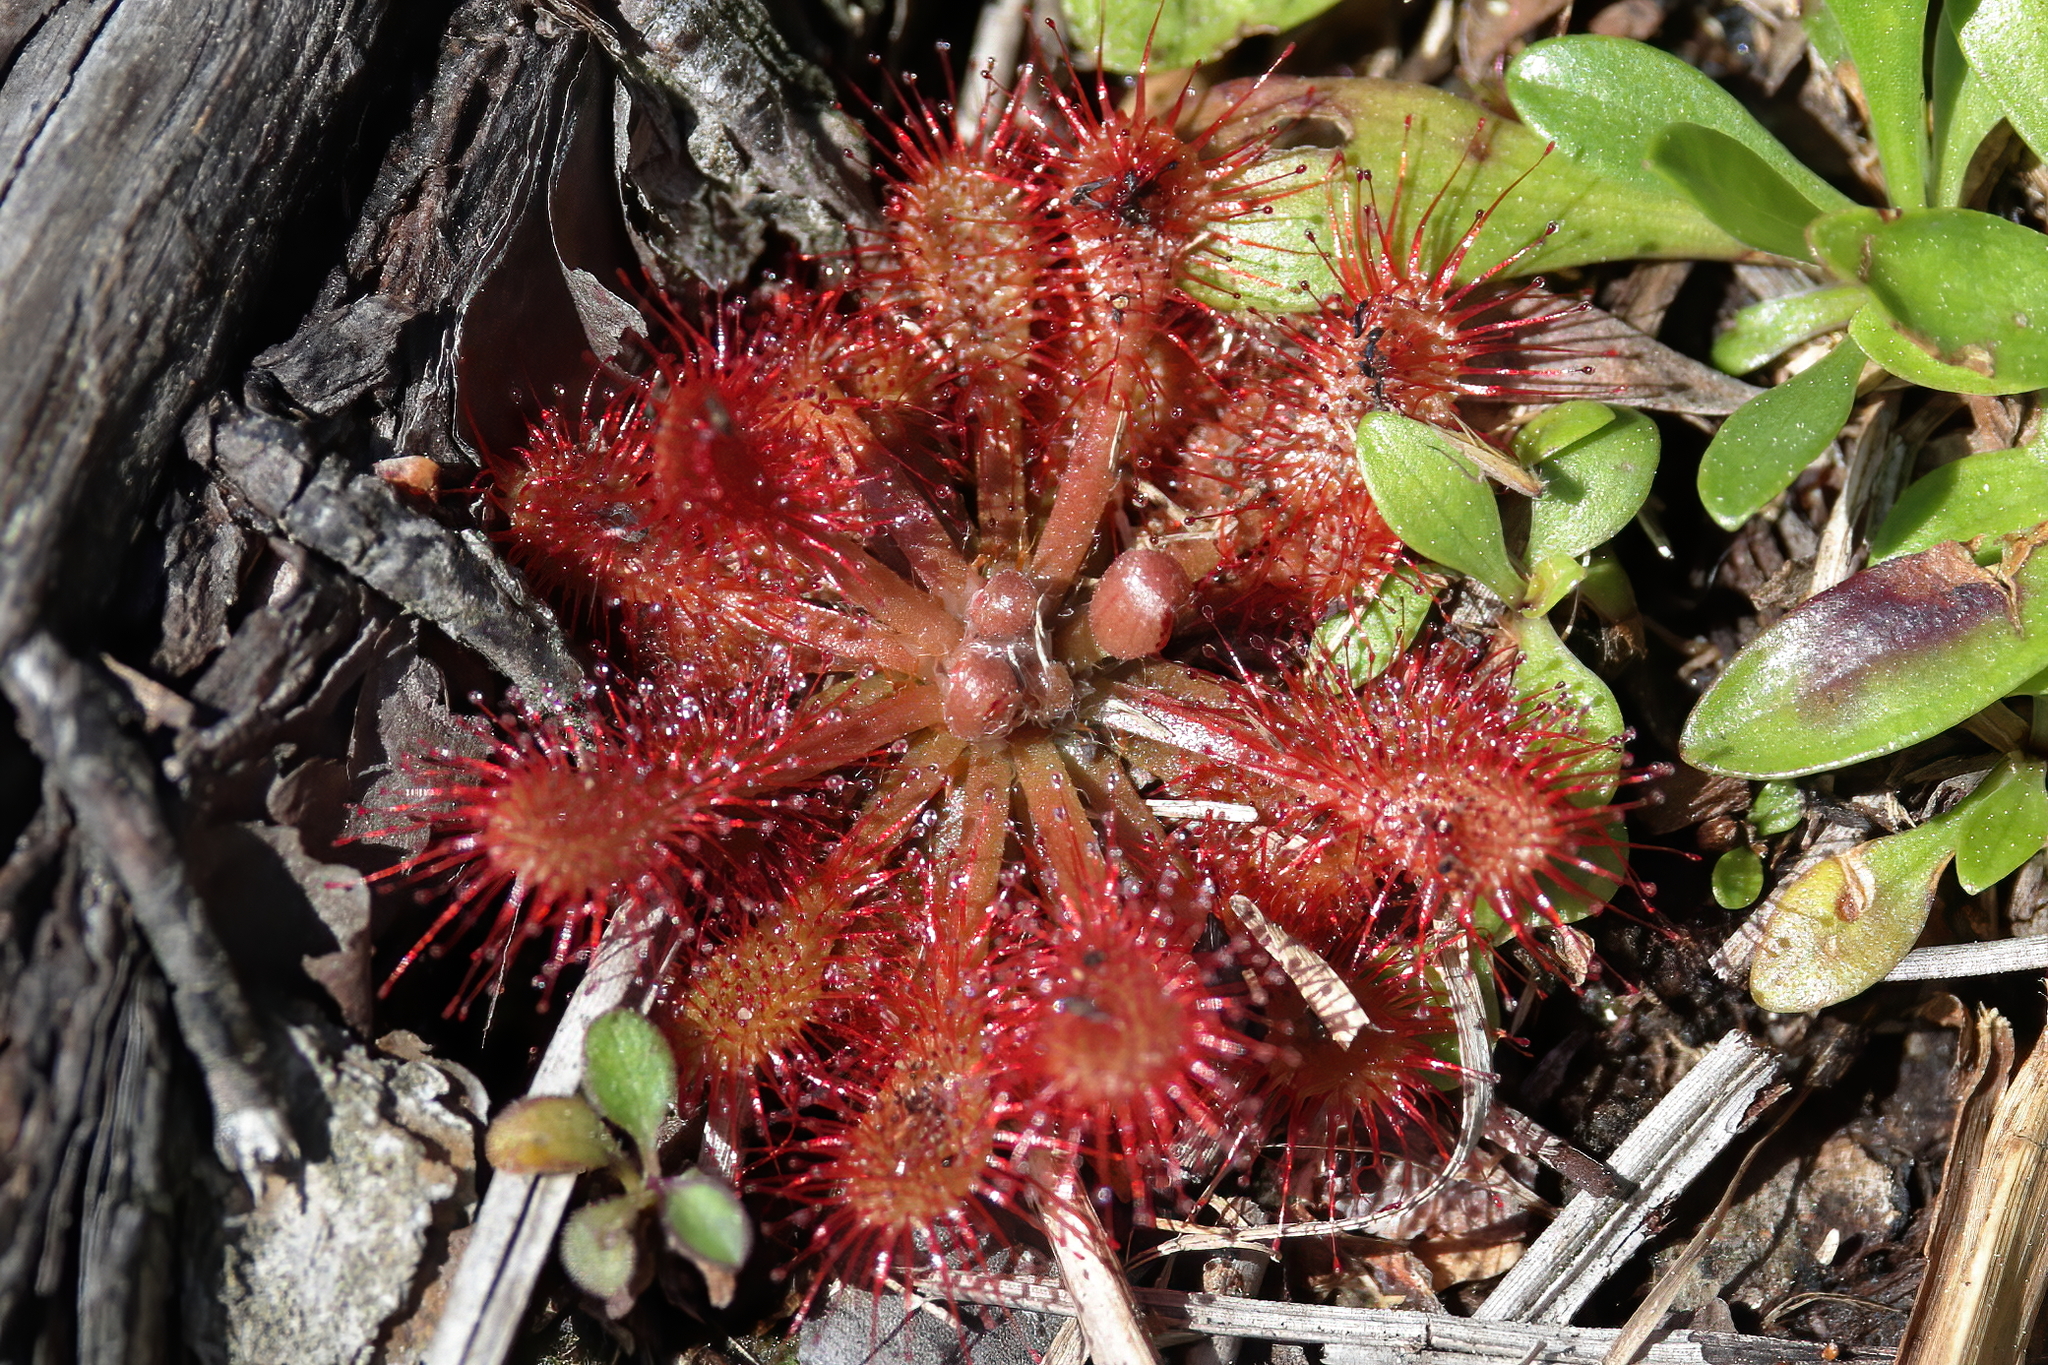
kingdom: Plantae
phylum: Tracheophyta
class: Magnoliopsida
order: Caryophyllales
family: Droseraceae
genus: Drosera
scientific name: Drosera capillaris
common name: Pink sundew
